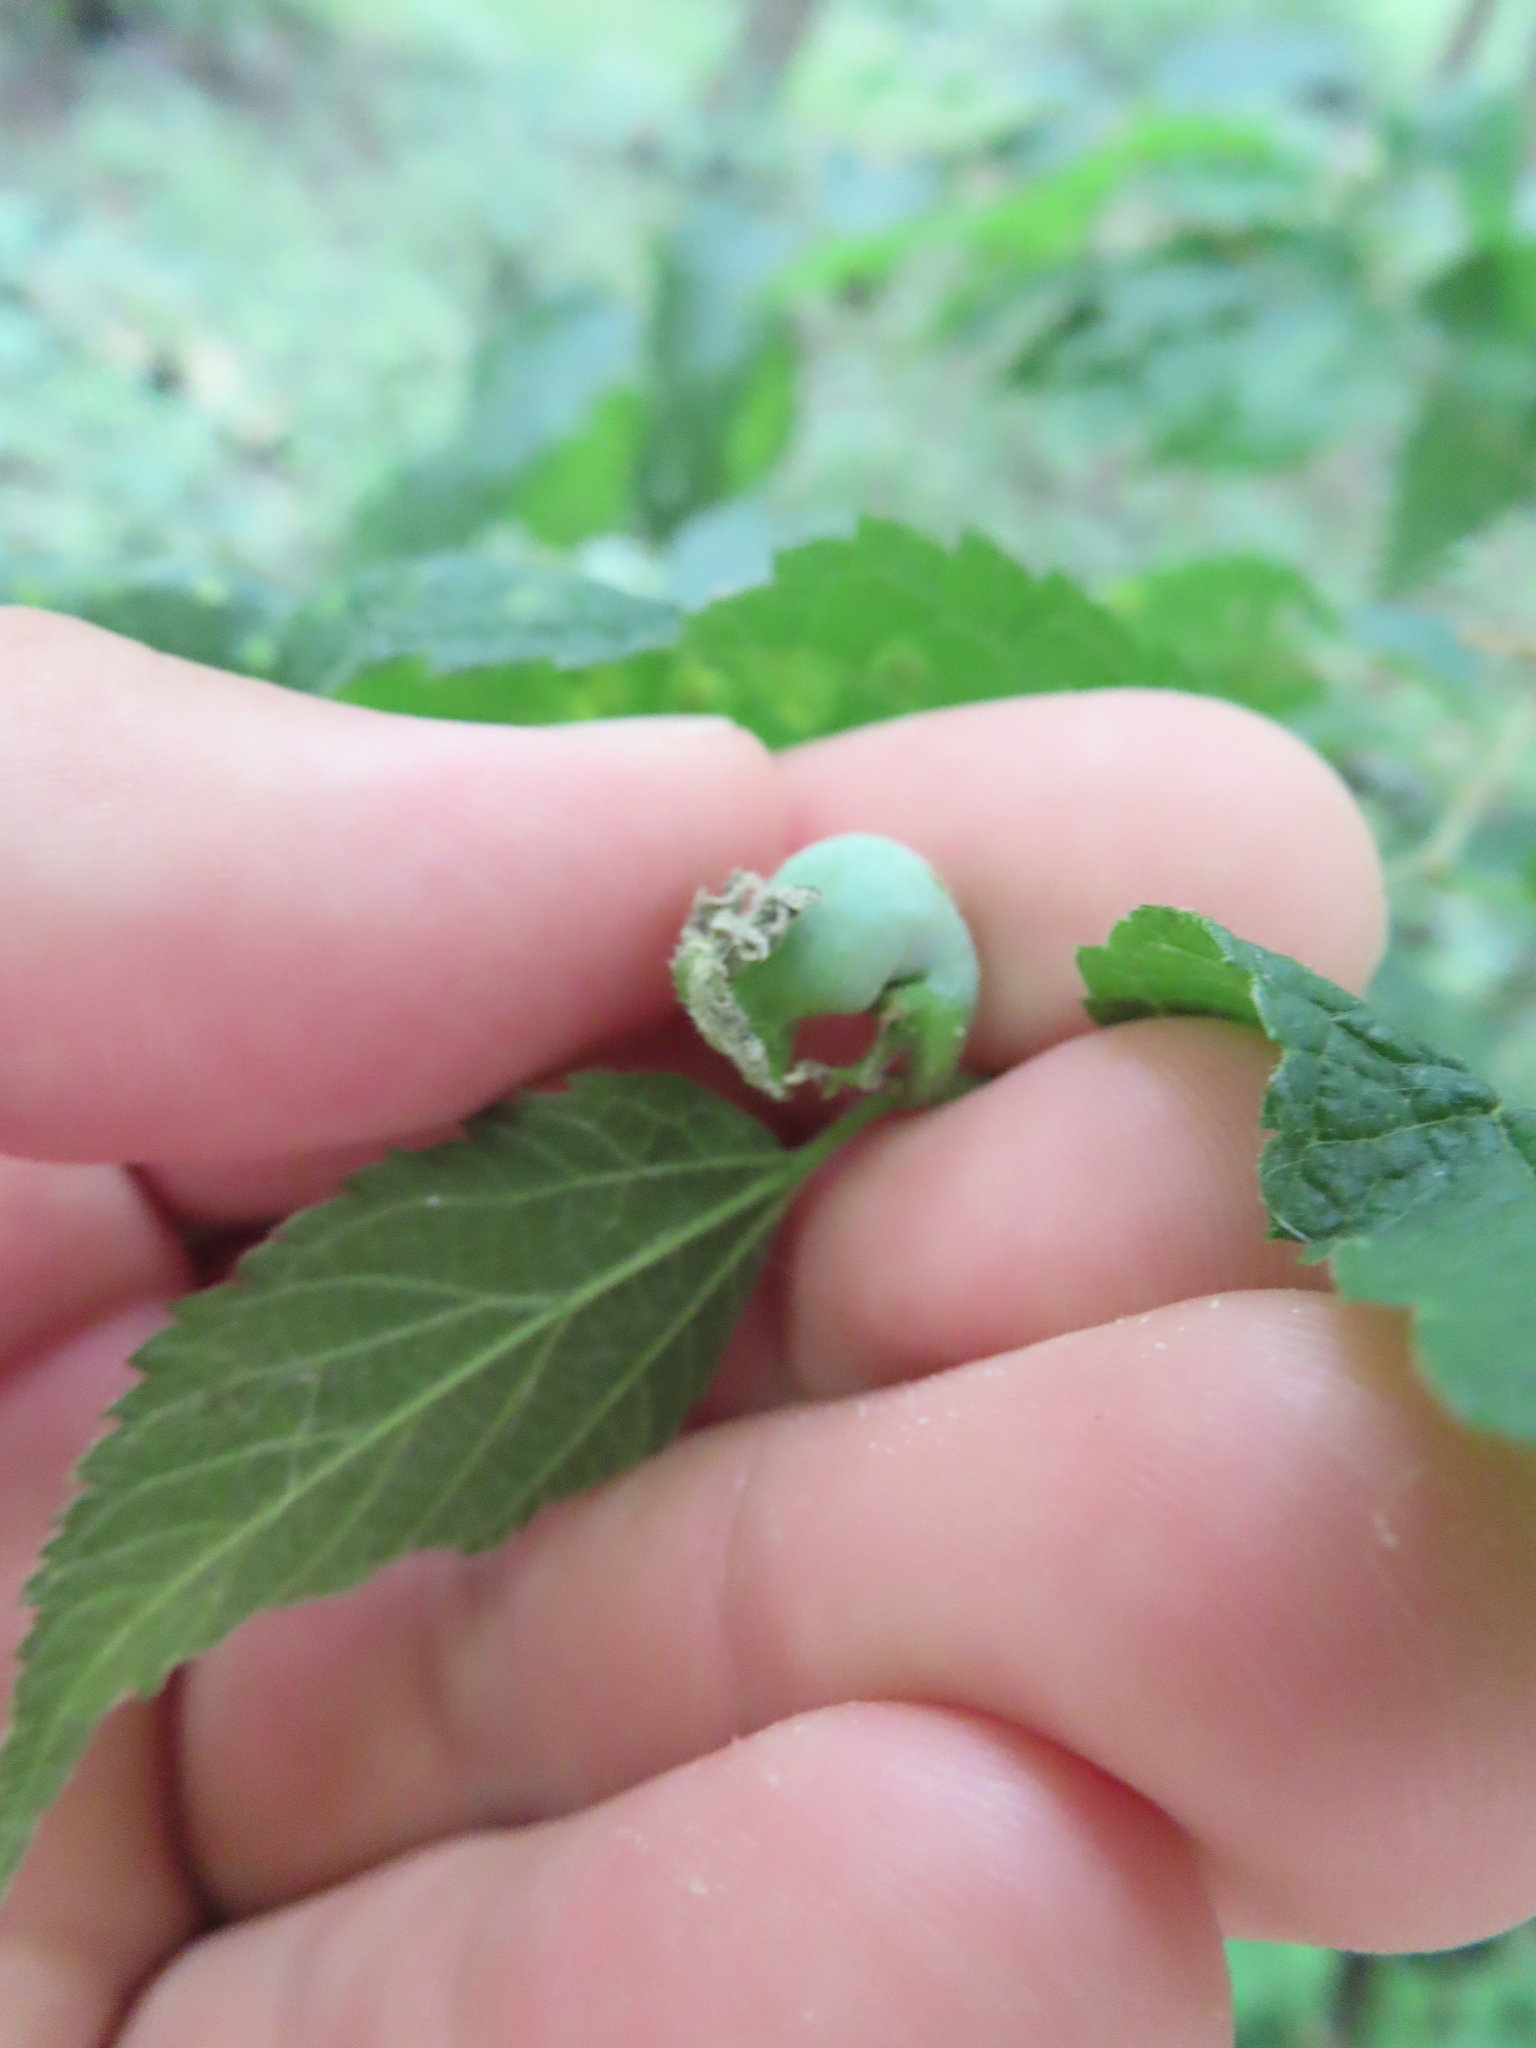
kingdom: Animalia
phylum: Arthropoda
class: Insecta
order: Hemiptera
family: Aphalaridae
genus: Pachypsylla
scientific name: Pachypsylla venusta
